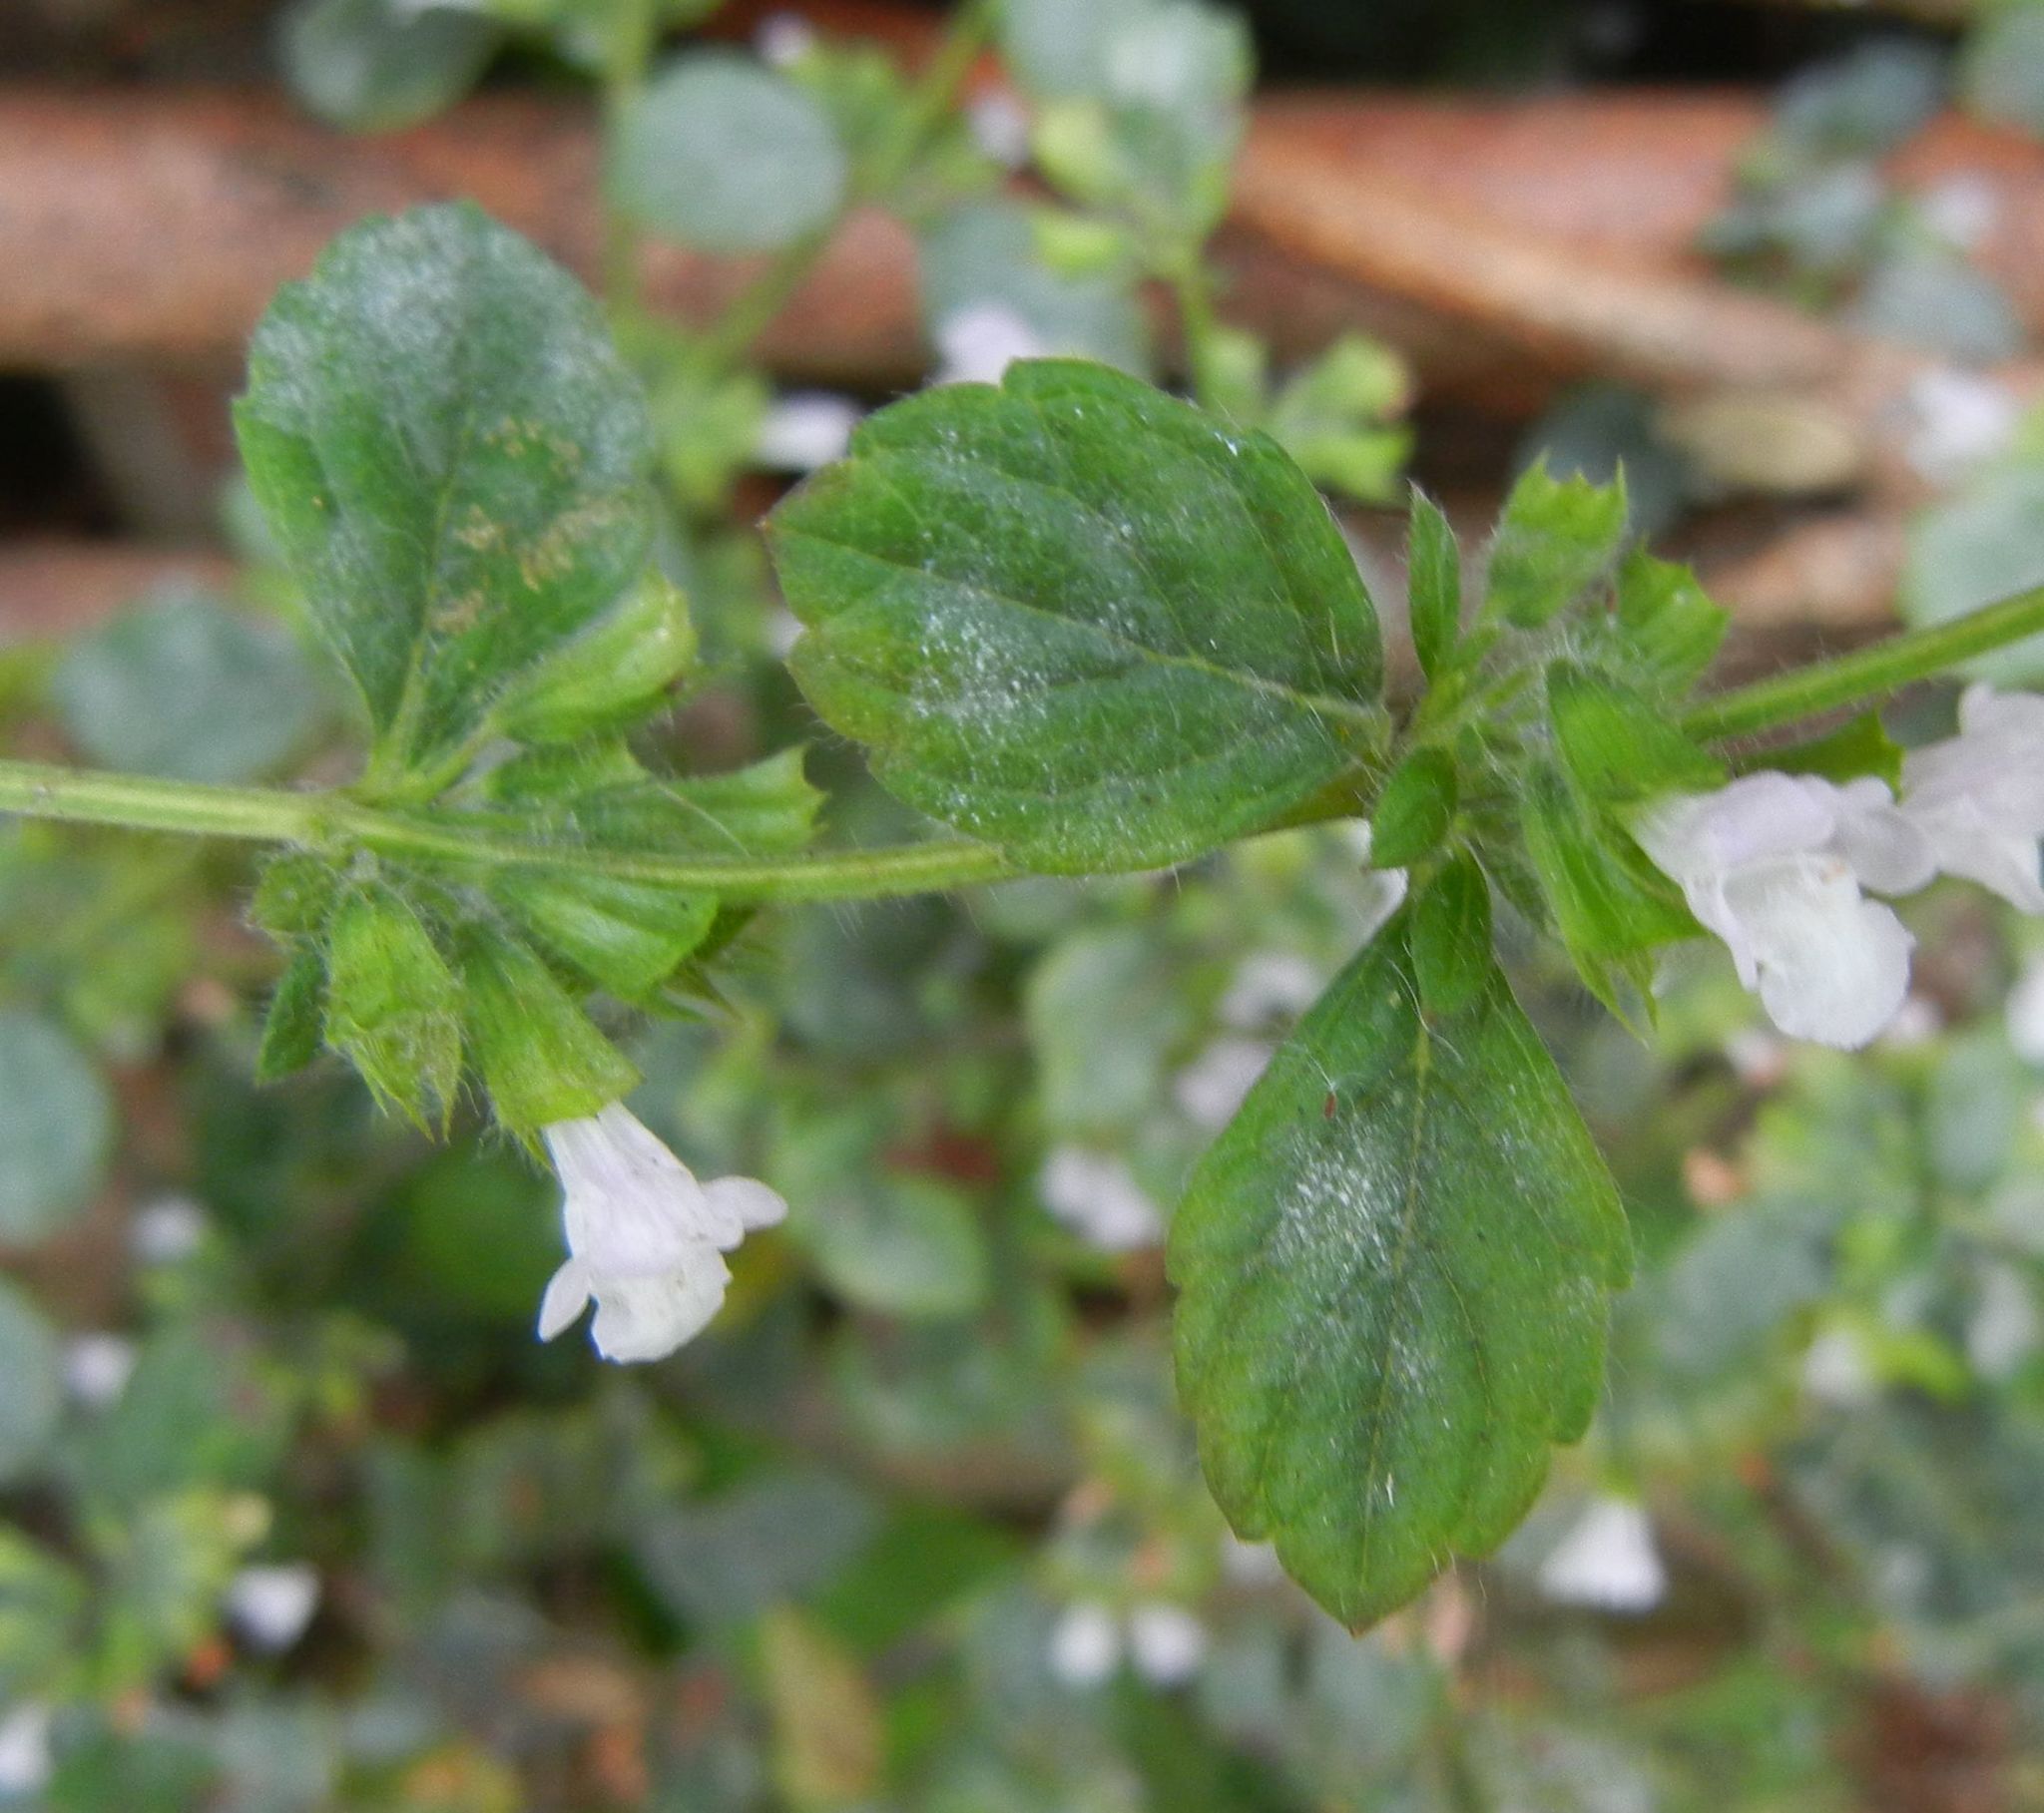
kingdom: Plantae
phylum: Tracheophyta
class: Magnoliopsida
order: Lamiales
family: Lamiaceae
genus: Melissa
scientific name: Melissa officinalis
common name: Balm
